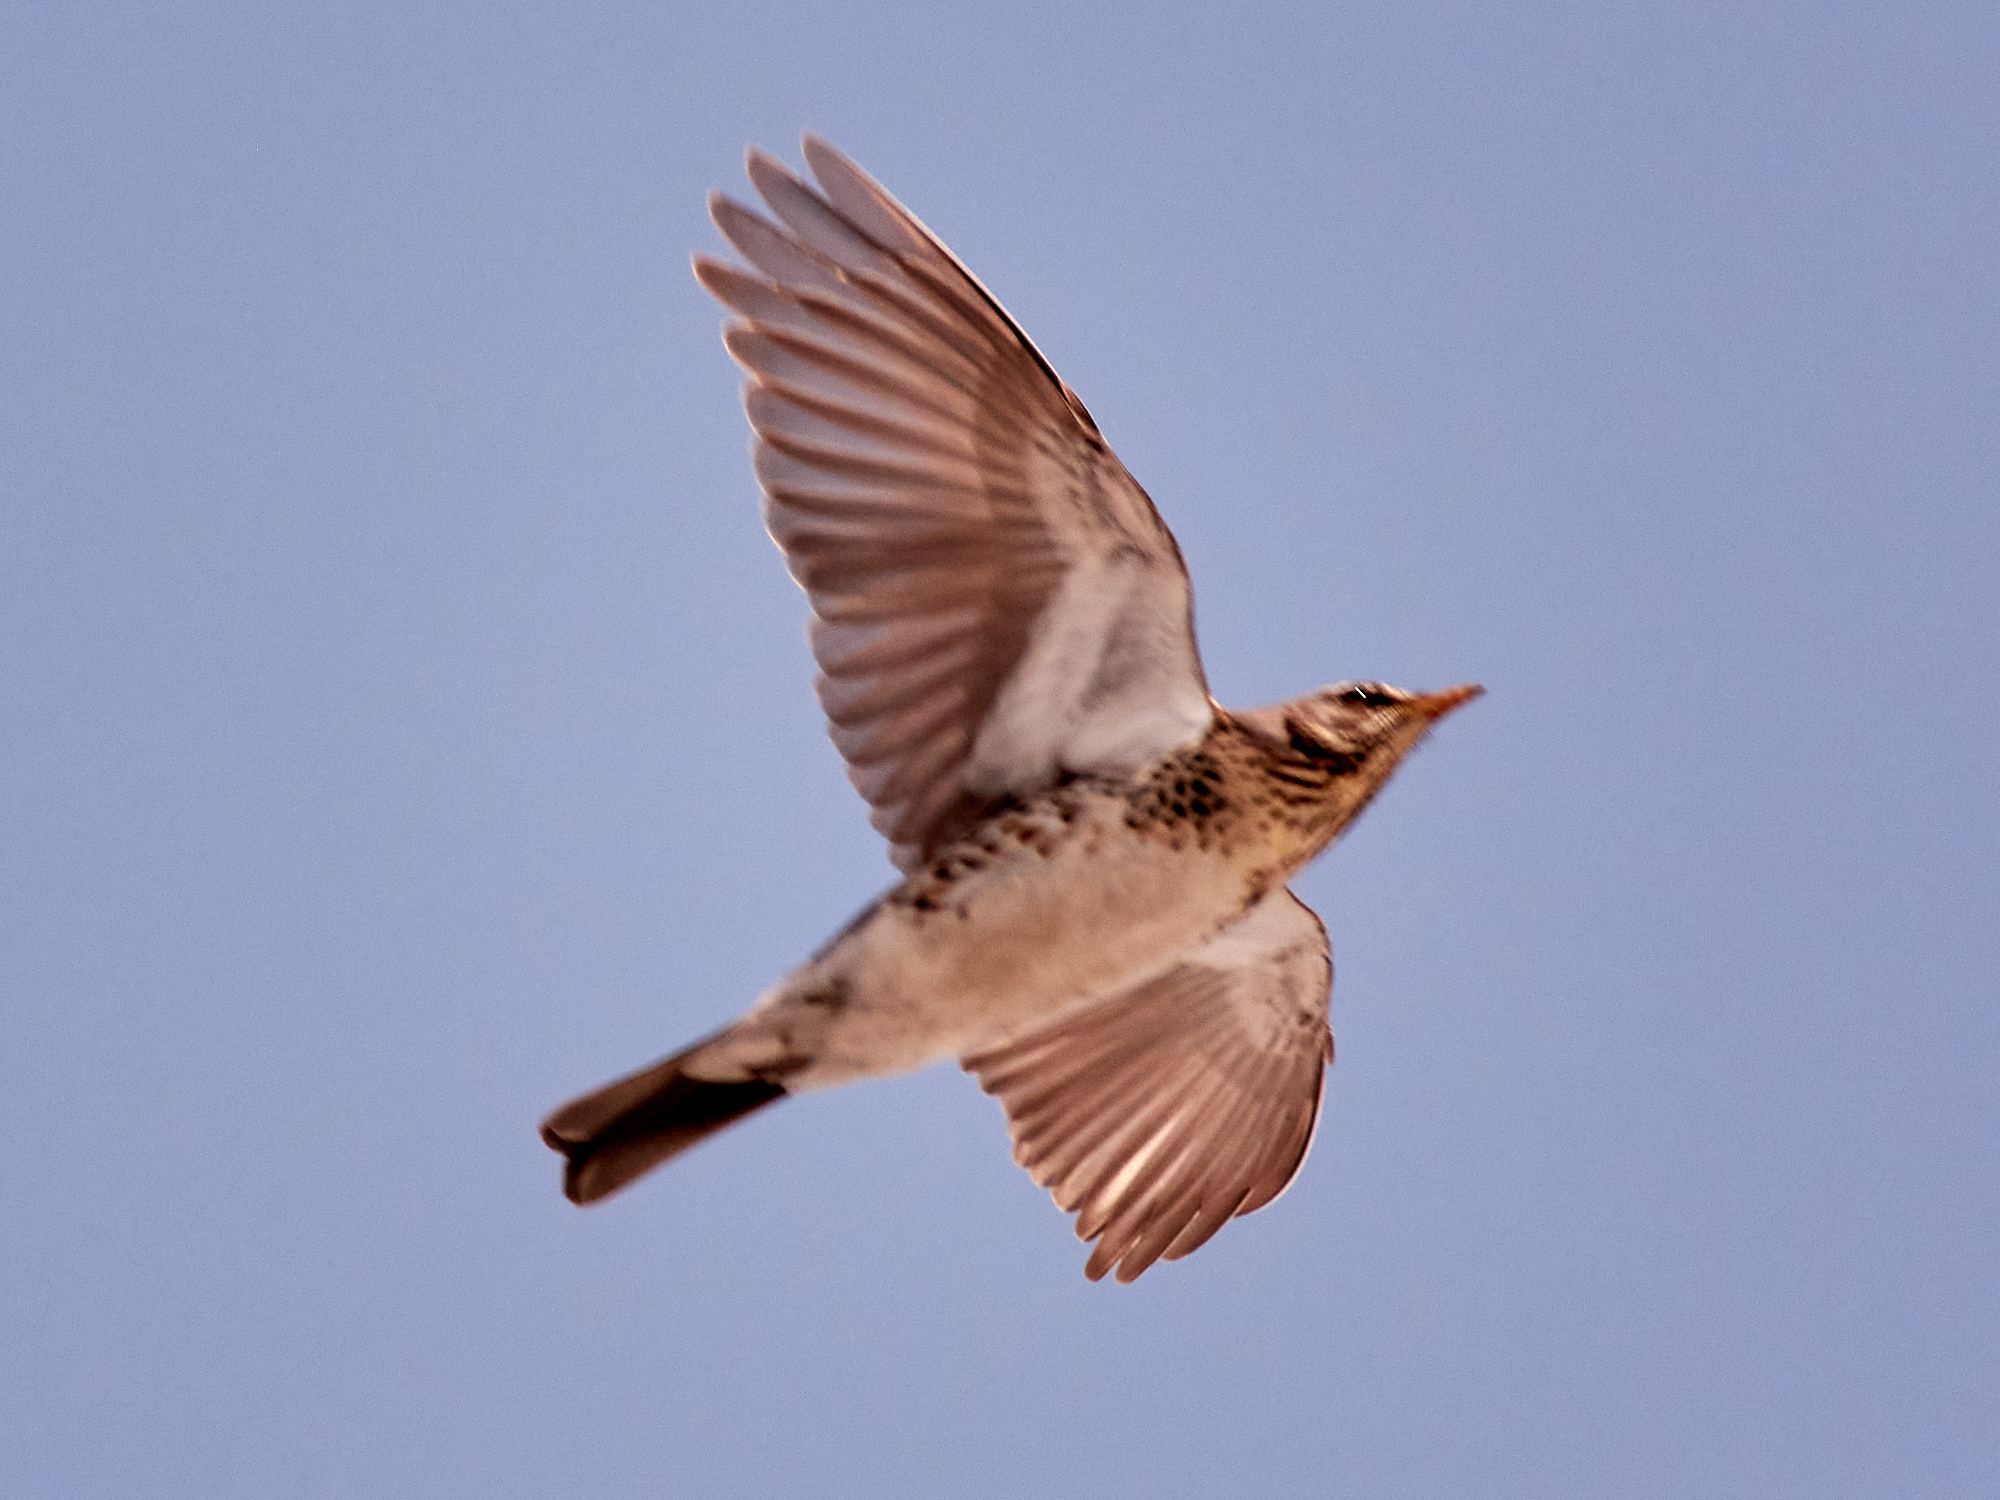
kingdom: Animalia
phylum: Chordata
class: Aves
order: Passeriformes
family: Turdidae
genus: Turdus
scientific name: Turdus pilaris
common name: Fieldfare
